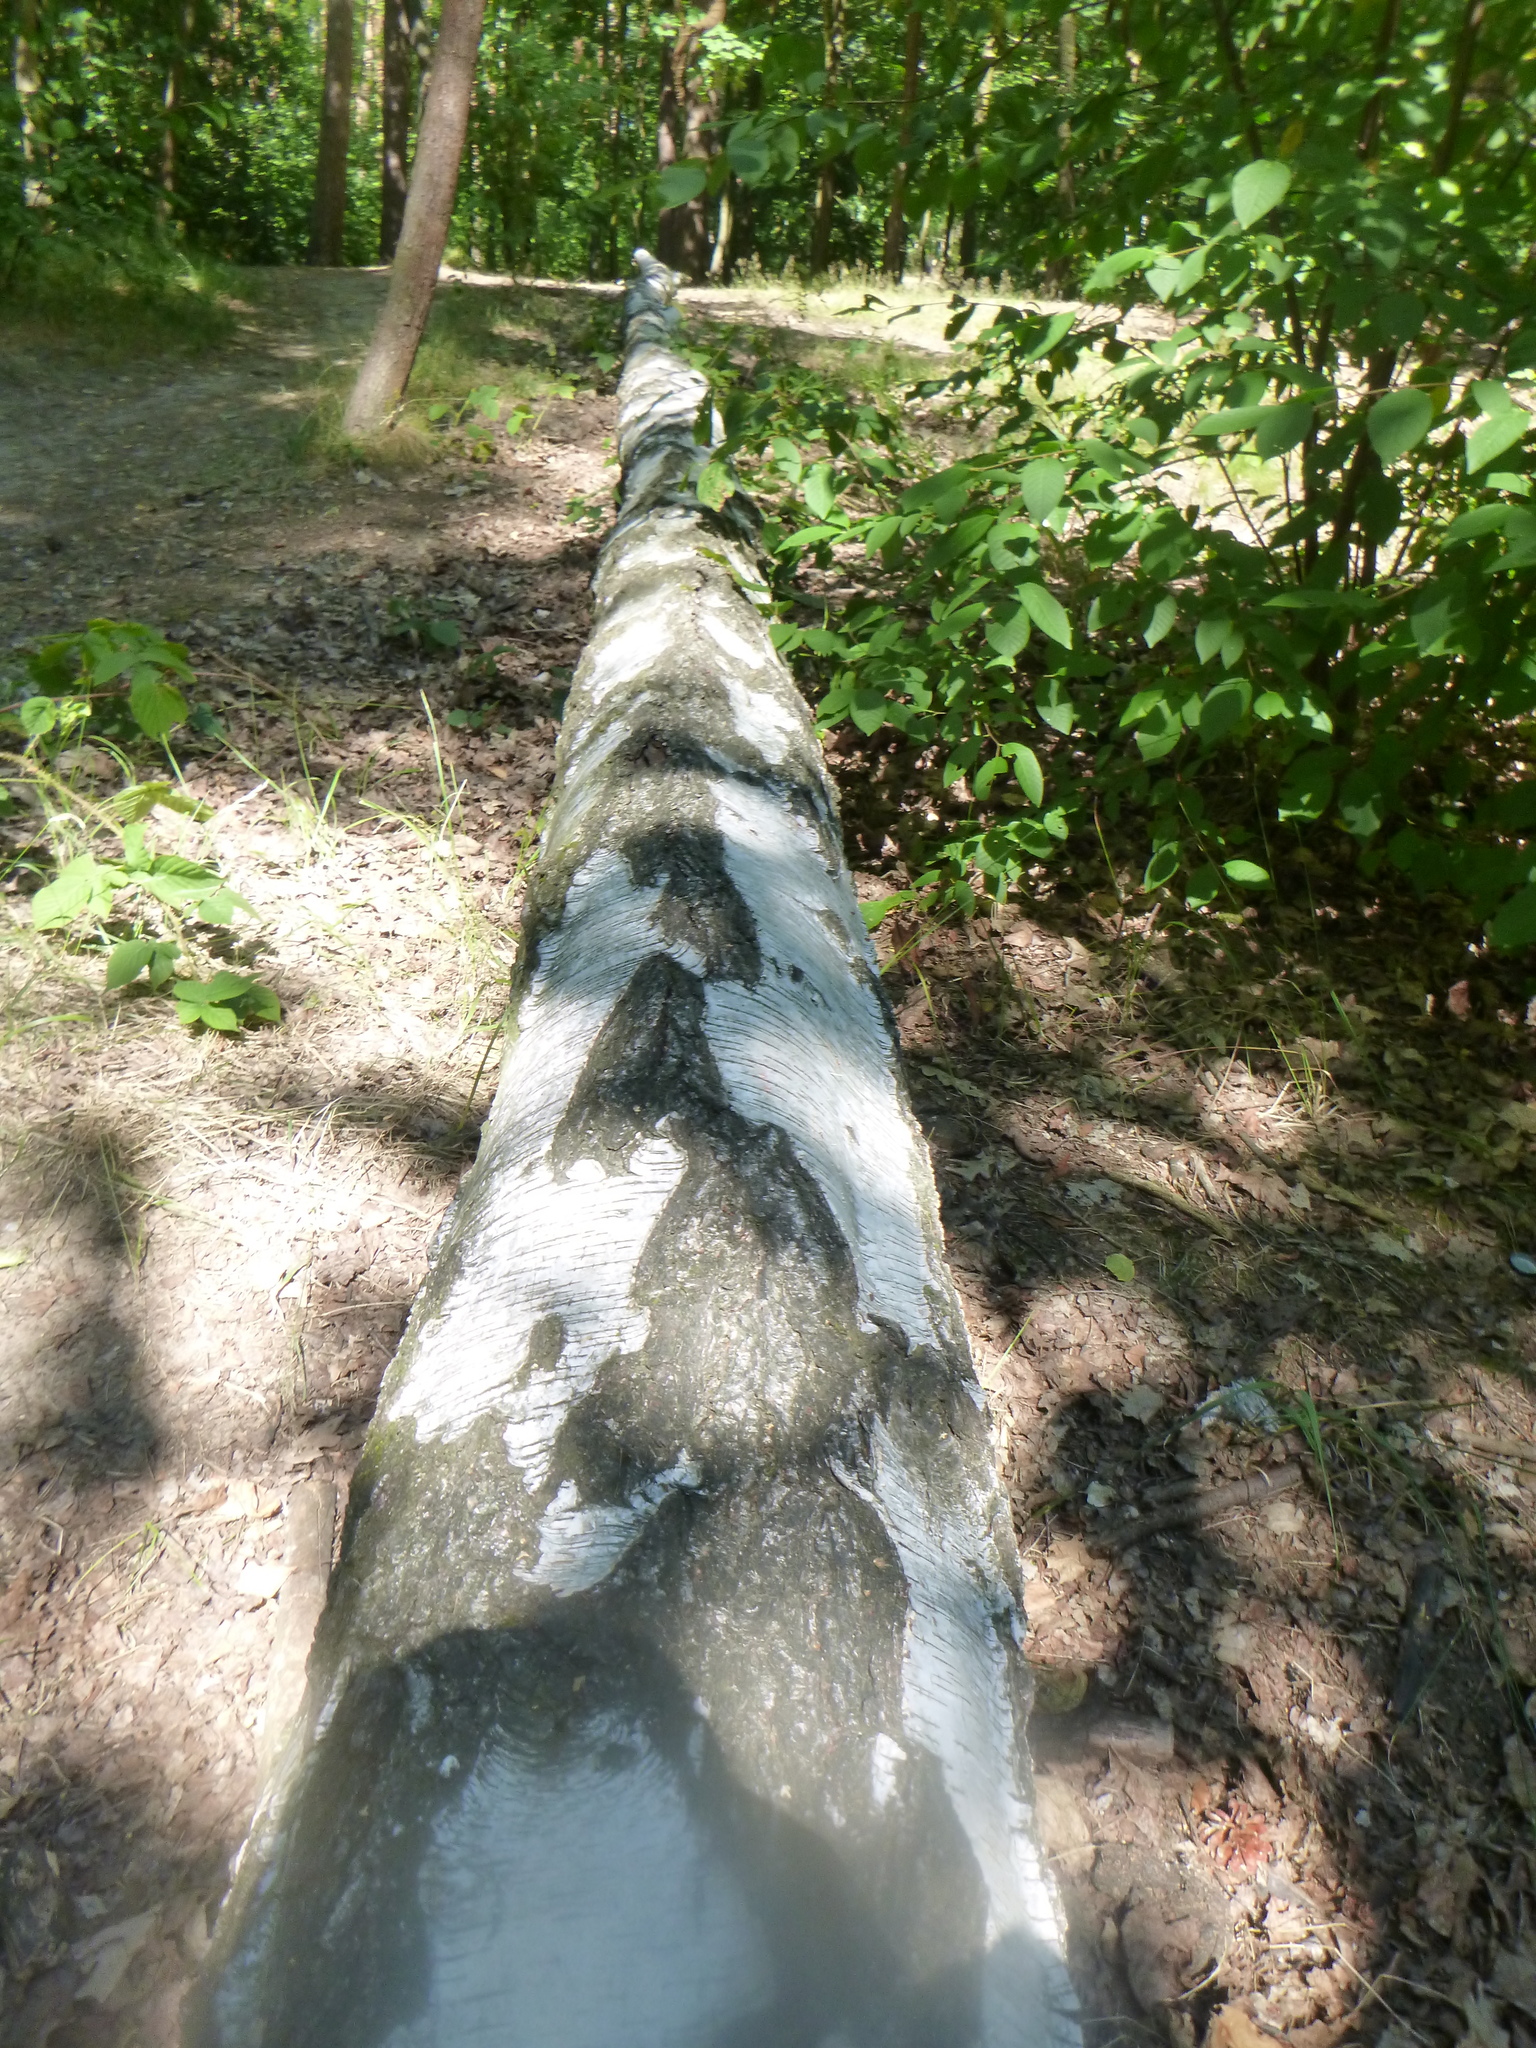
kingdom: Plantae
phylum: Tracheophyta
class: Magnoliopsida
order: Fagales
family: Betulaceae
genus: Betula
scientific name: Betula pendula
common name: Silver birch
